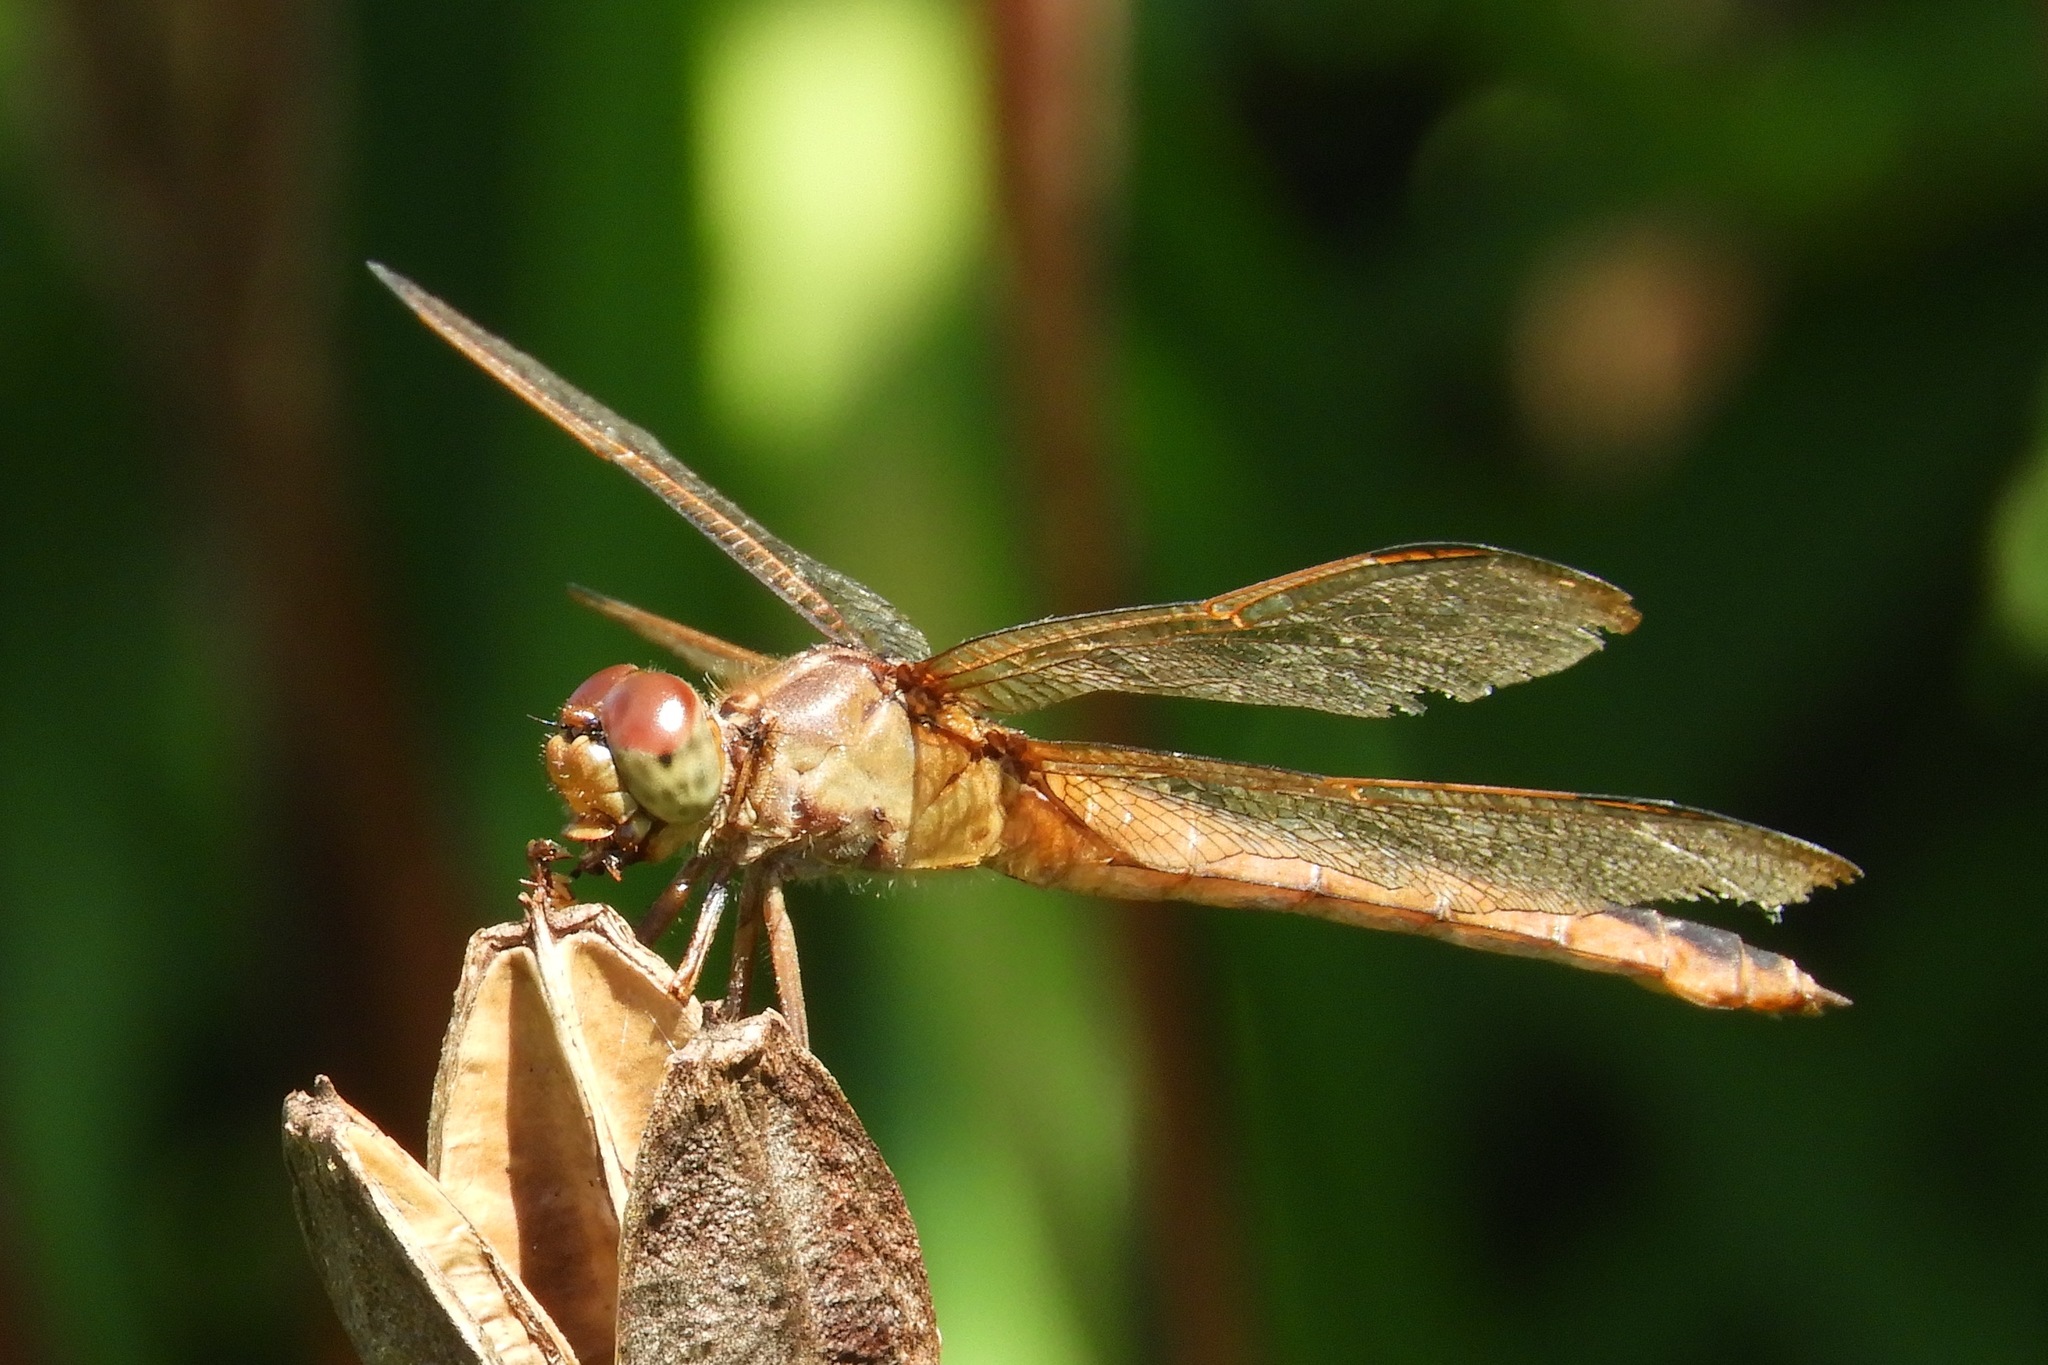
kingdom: Animalia
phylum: Arthropoda
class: Insecta
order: Odonata
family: Libellulidae
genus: Libellula
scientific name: Libellula needhami
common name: Needham's skimmer
